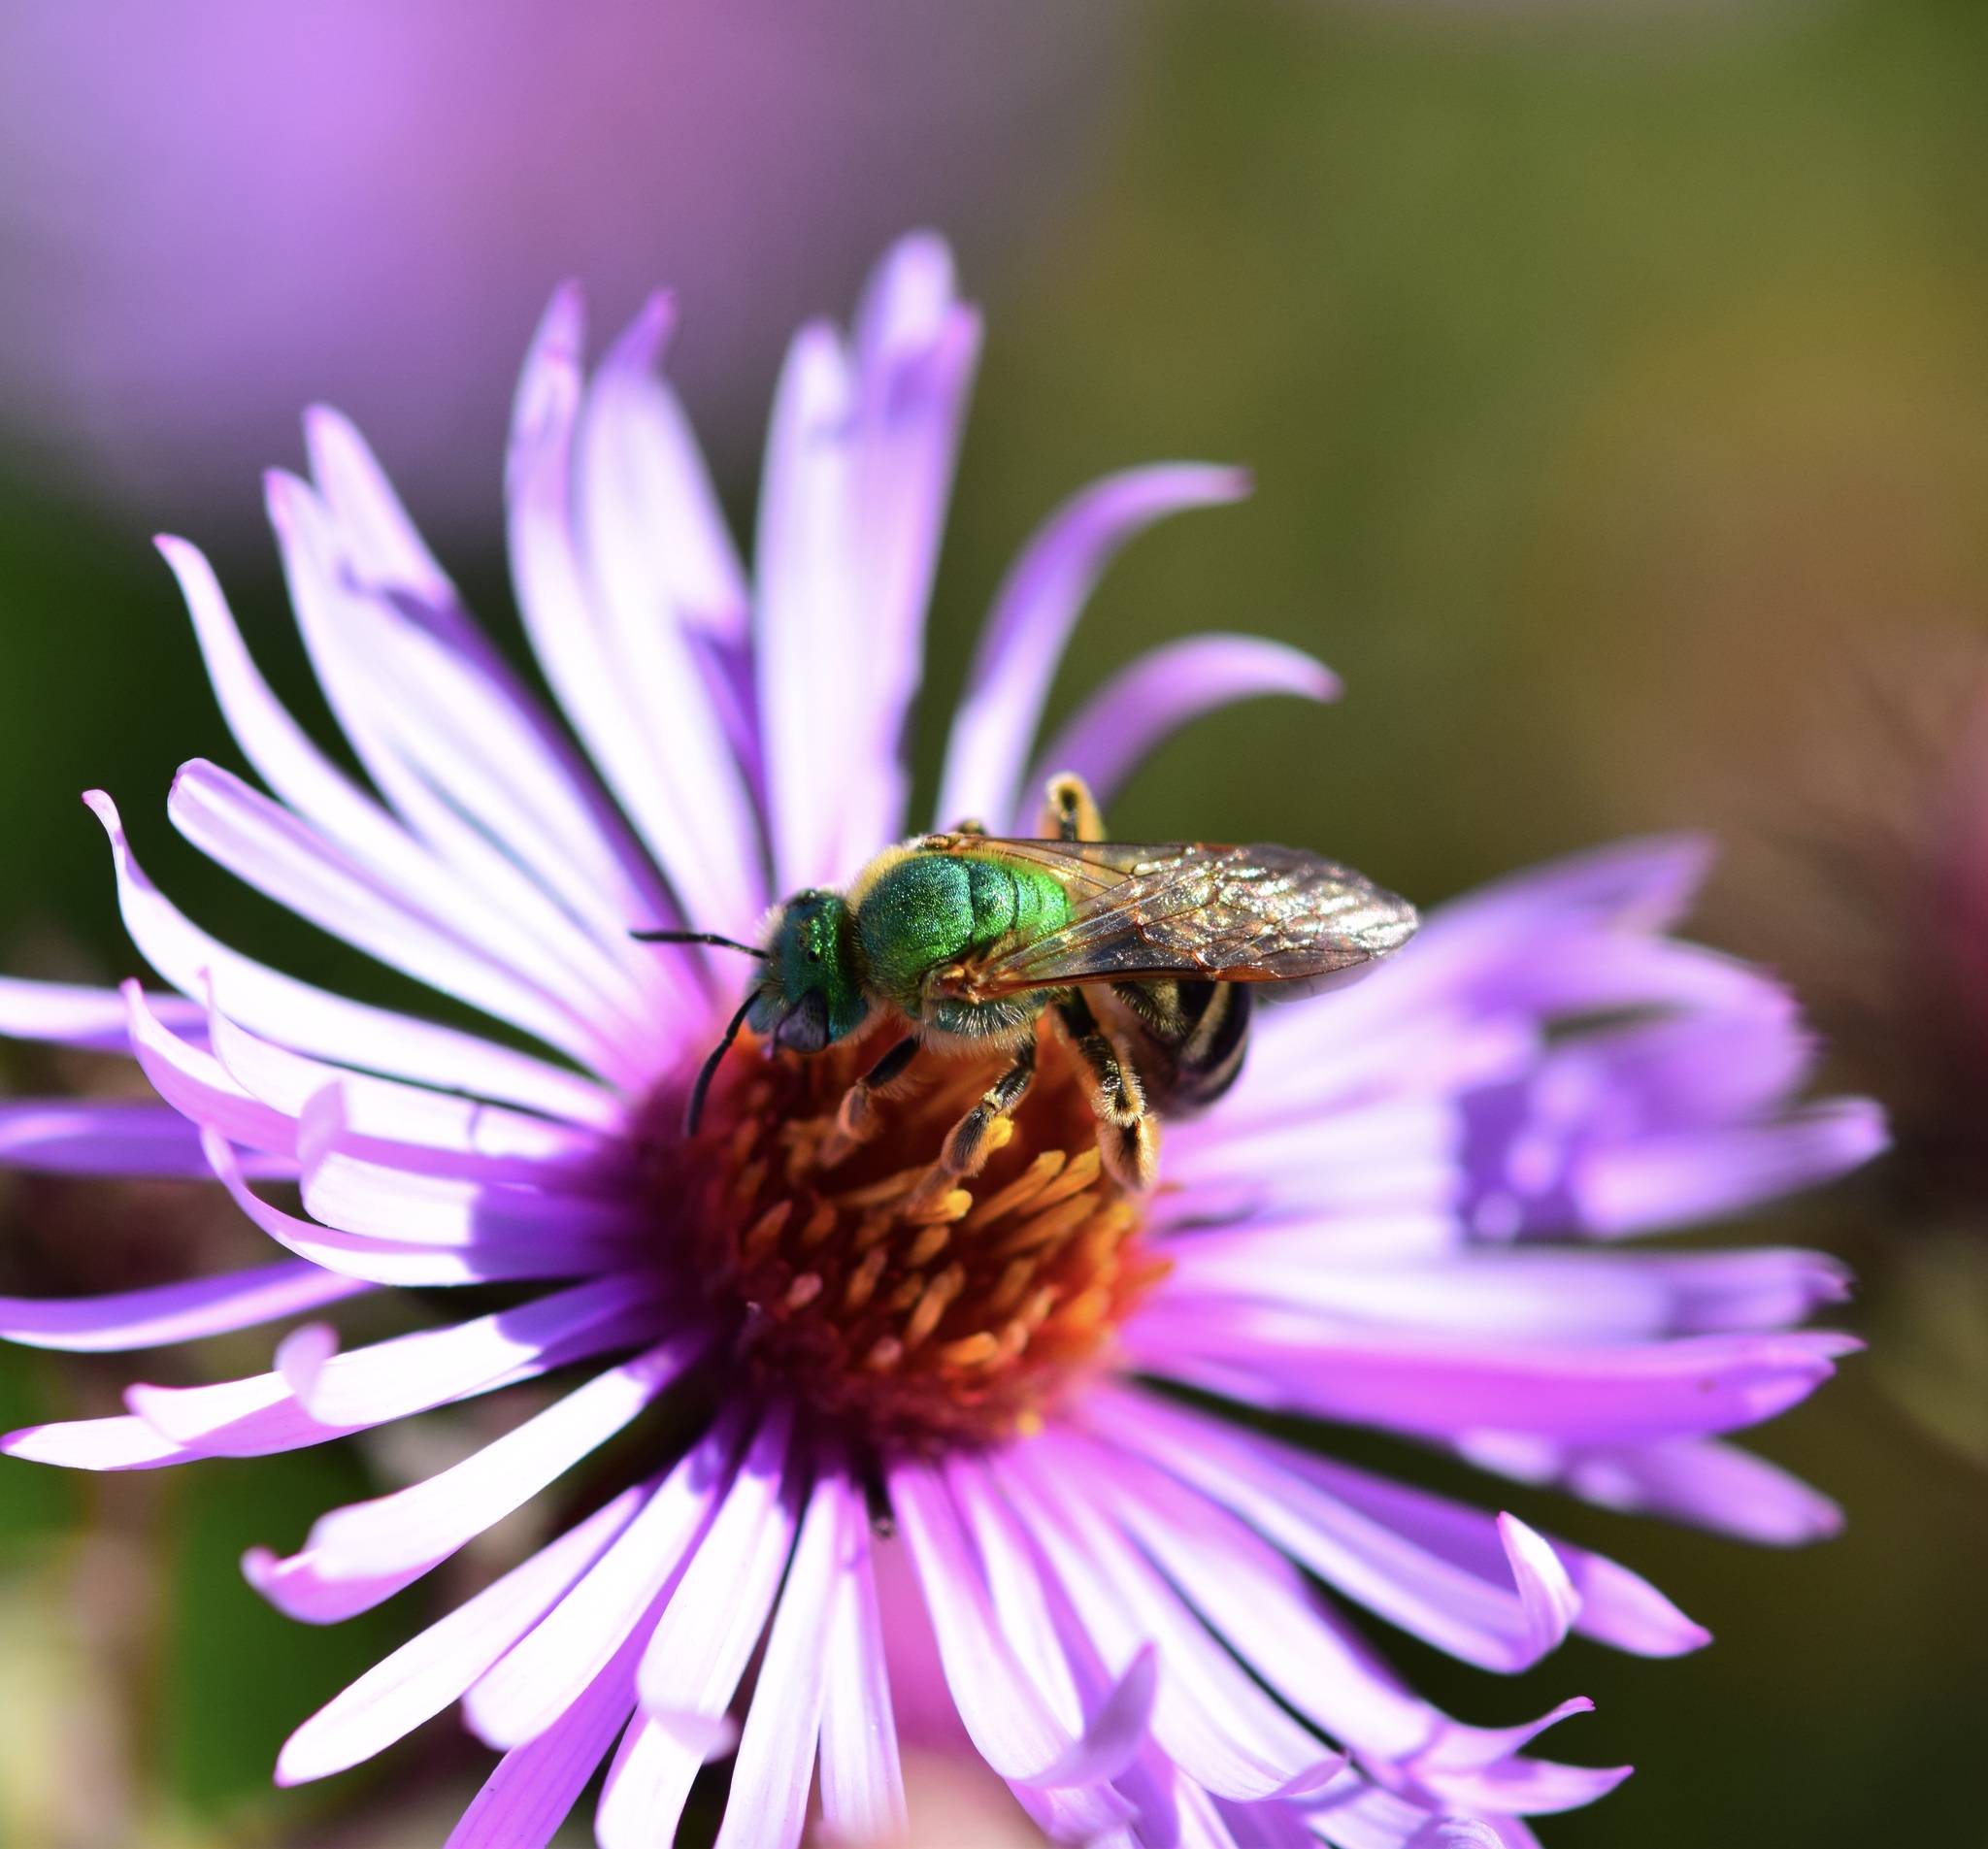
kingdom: Animalia
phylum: Arthropoda
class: Insecta
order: Hymenoptera
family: Halictidae
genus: Agapostemon
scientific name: Agapostemon virescens
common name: Bicolored striped sweat bee
